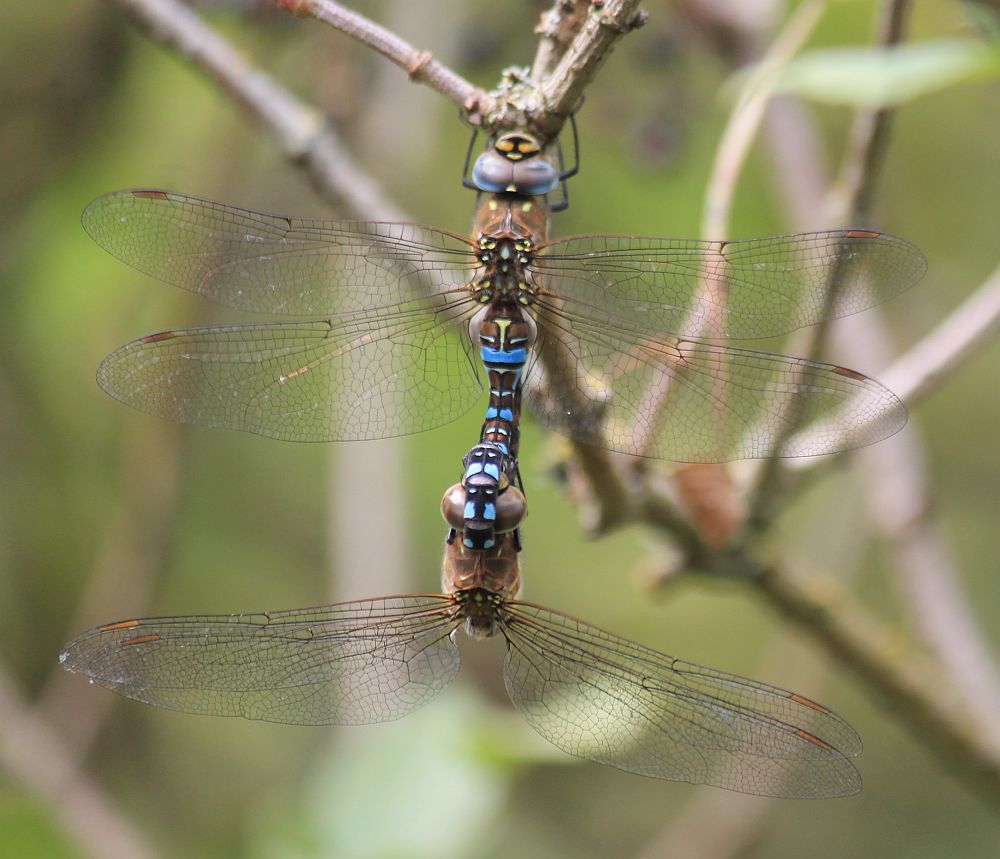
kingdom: Animalia
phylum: Arthropoda
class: Insecta
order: Odonata
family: Aeshnidae
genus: Aeshna
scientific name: Aeshna mixta
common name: Migrant hawker
